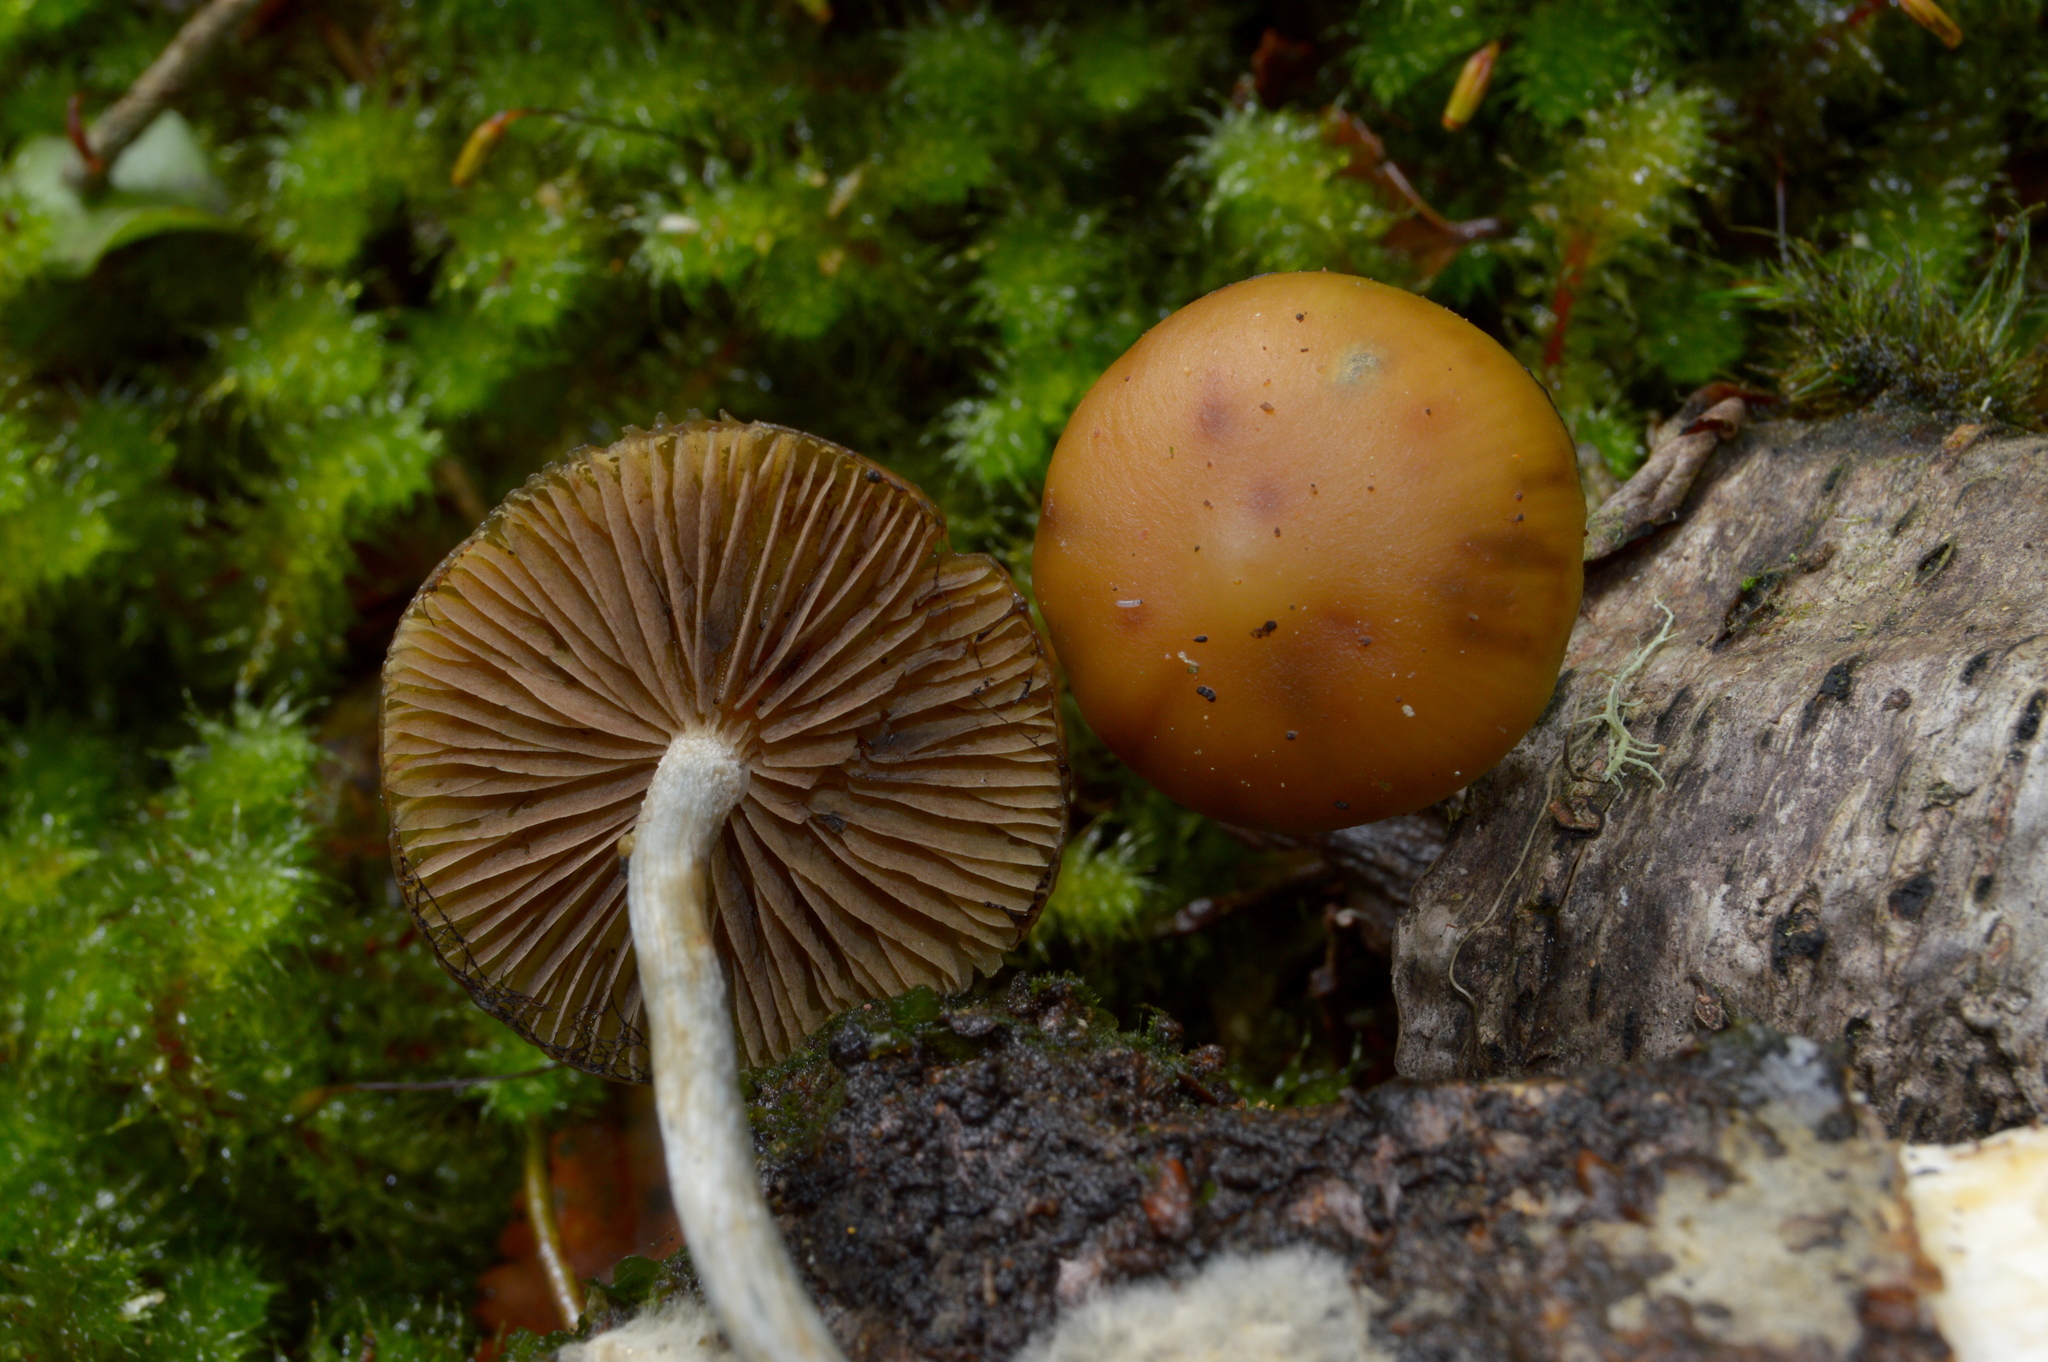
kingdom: Fungi
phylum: Basidiomycota
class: Agaricomycetes
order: Agaricales
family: Hymenogastraceae
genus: Psilocybe
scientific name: Psilocybe makarorae
